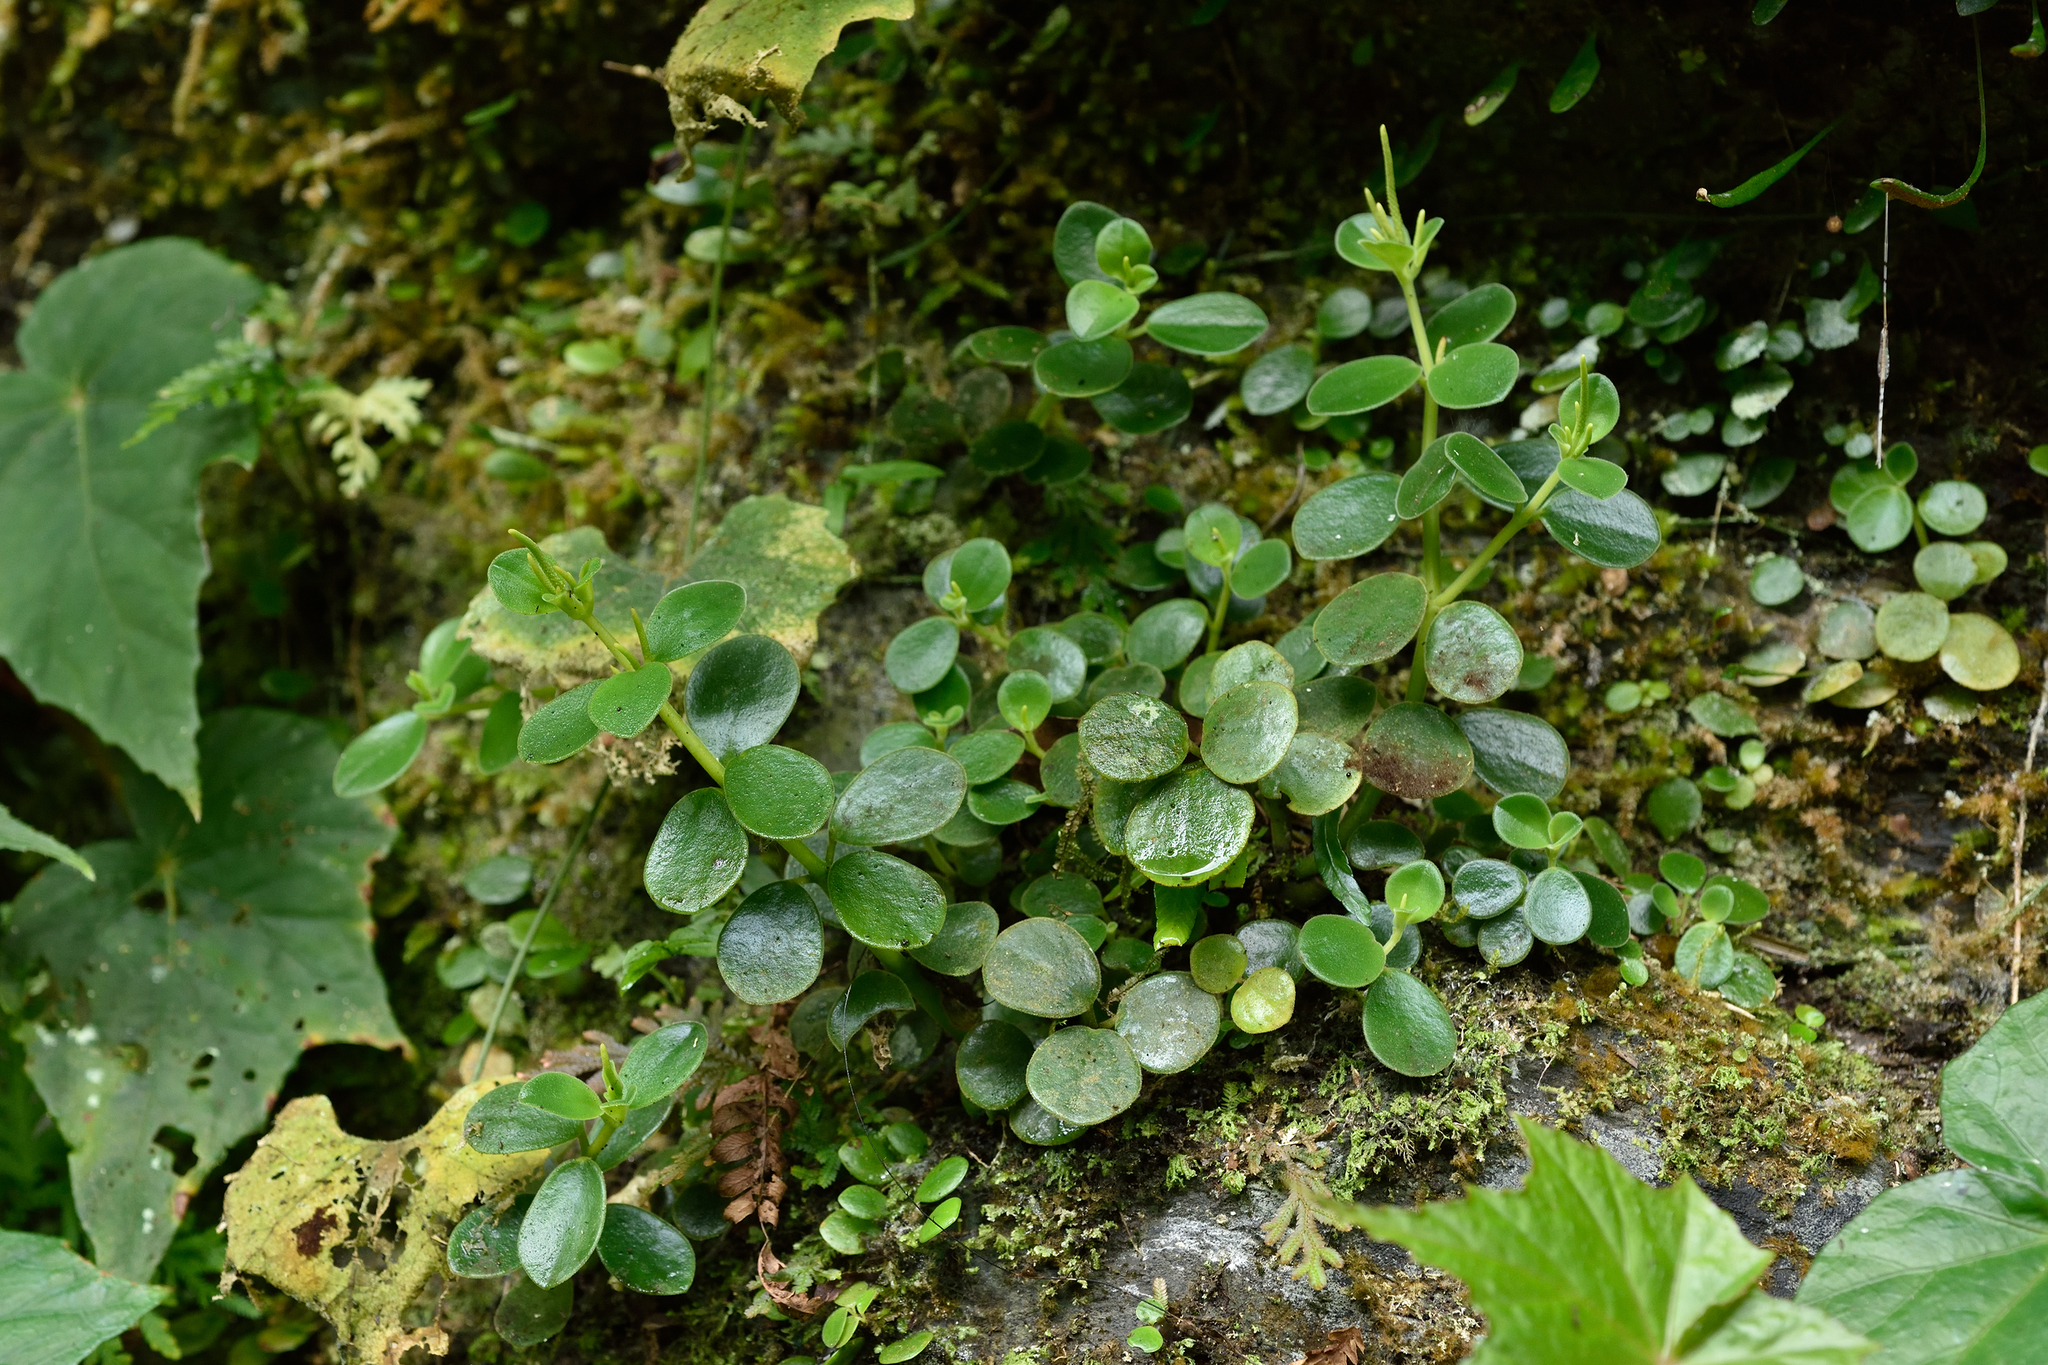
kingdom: Plantae
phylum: Tracheophyta
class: Magnoliopsida
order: Piperales
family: Piperaceae
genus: Peperomia
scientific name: Peperomia japonica
